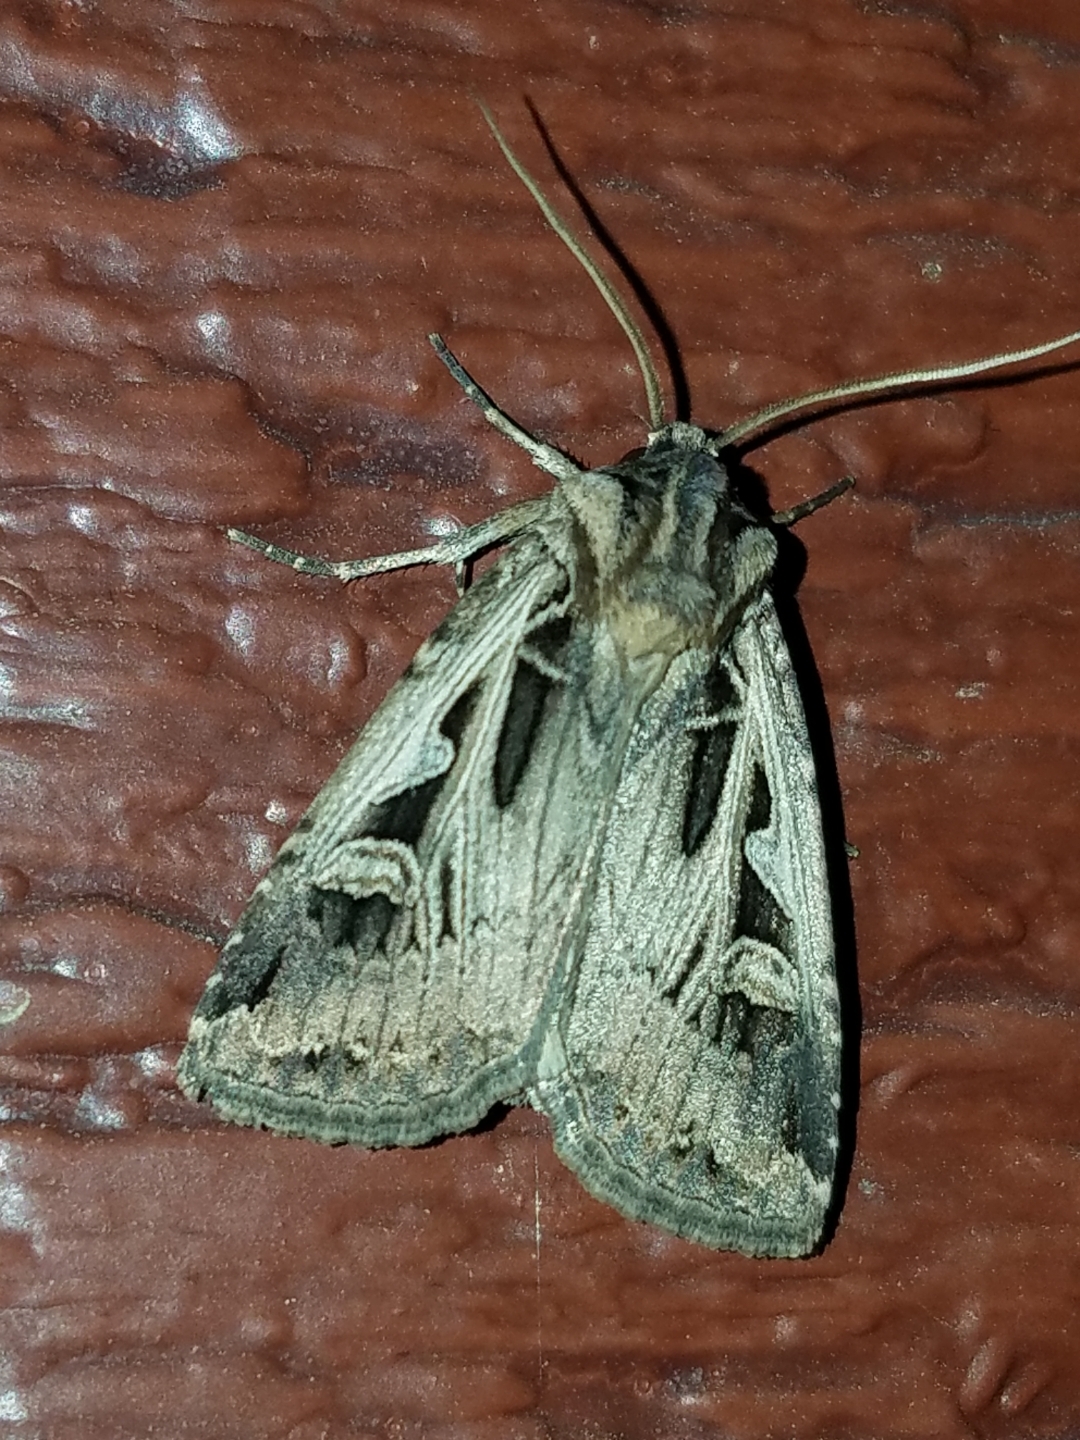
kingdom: Animalia
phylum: Arthropoda
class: Insecta
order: Lepidoptera
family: Noctuidae
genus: Feltia
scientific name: Feltia jaculifera
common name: Dingy cutworm moth
